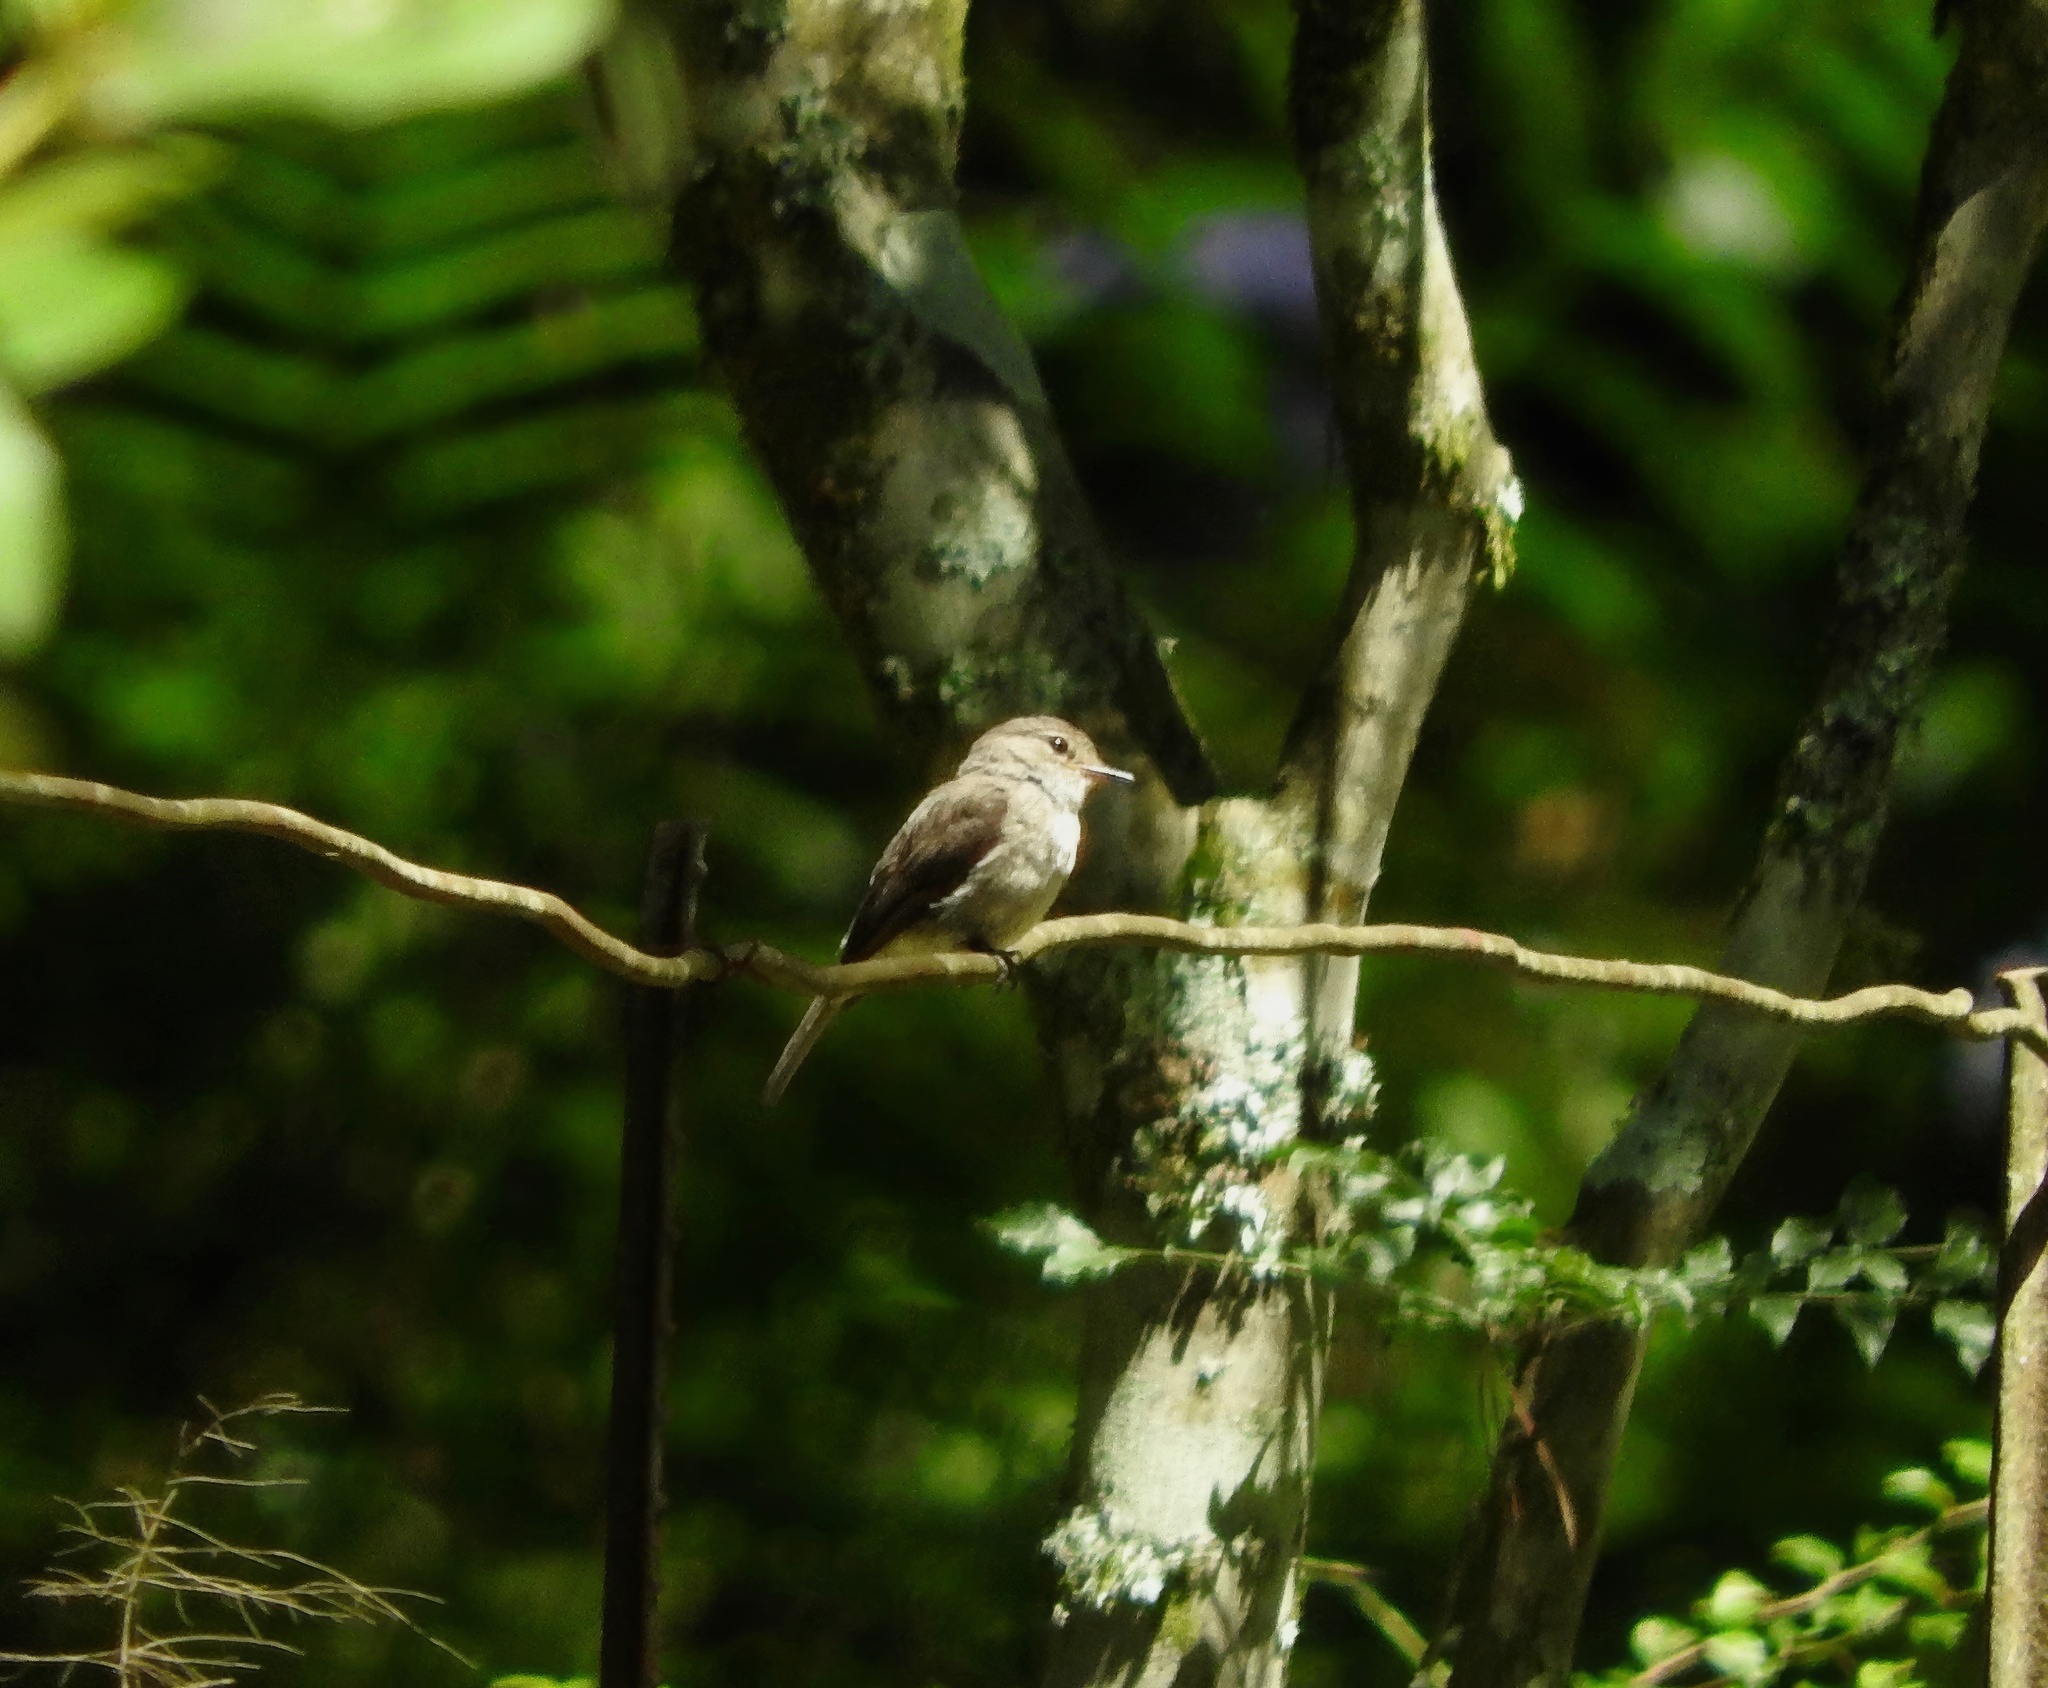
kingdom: Animalia
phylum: Chordata
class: Aves
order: Passeriformes
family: Muscicapidae
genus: Muscicapa
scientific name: Muscicapa adusta
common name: African dusky flycatcher
